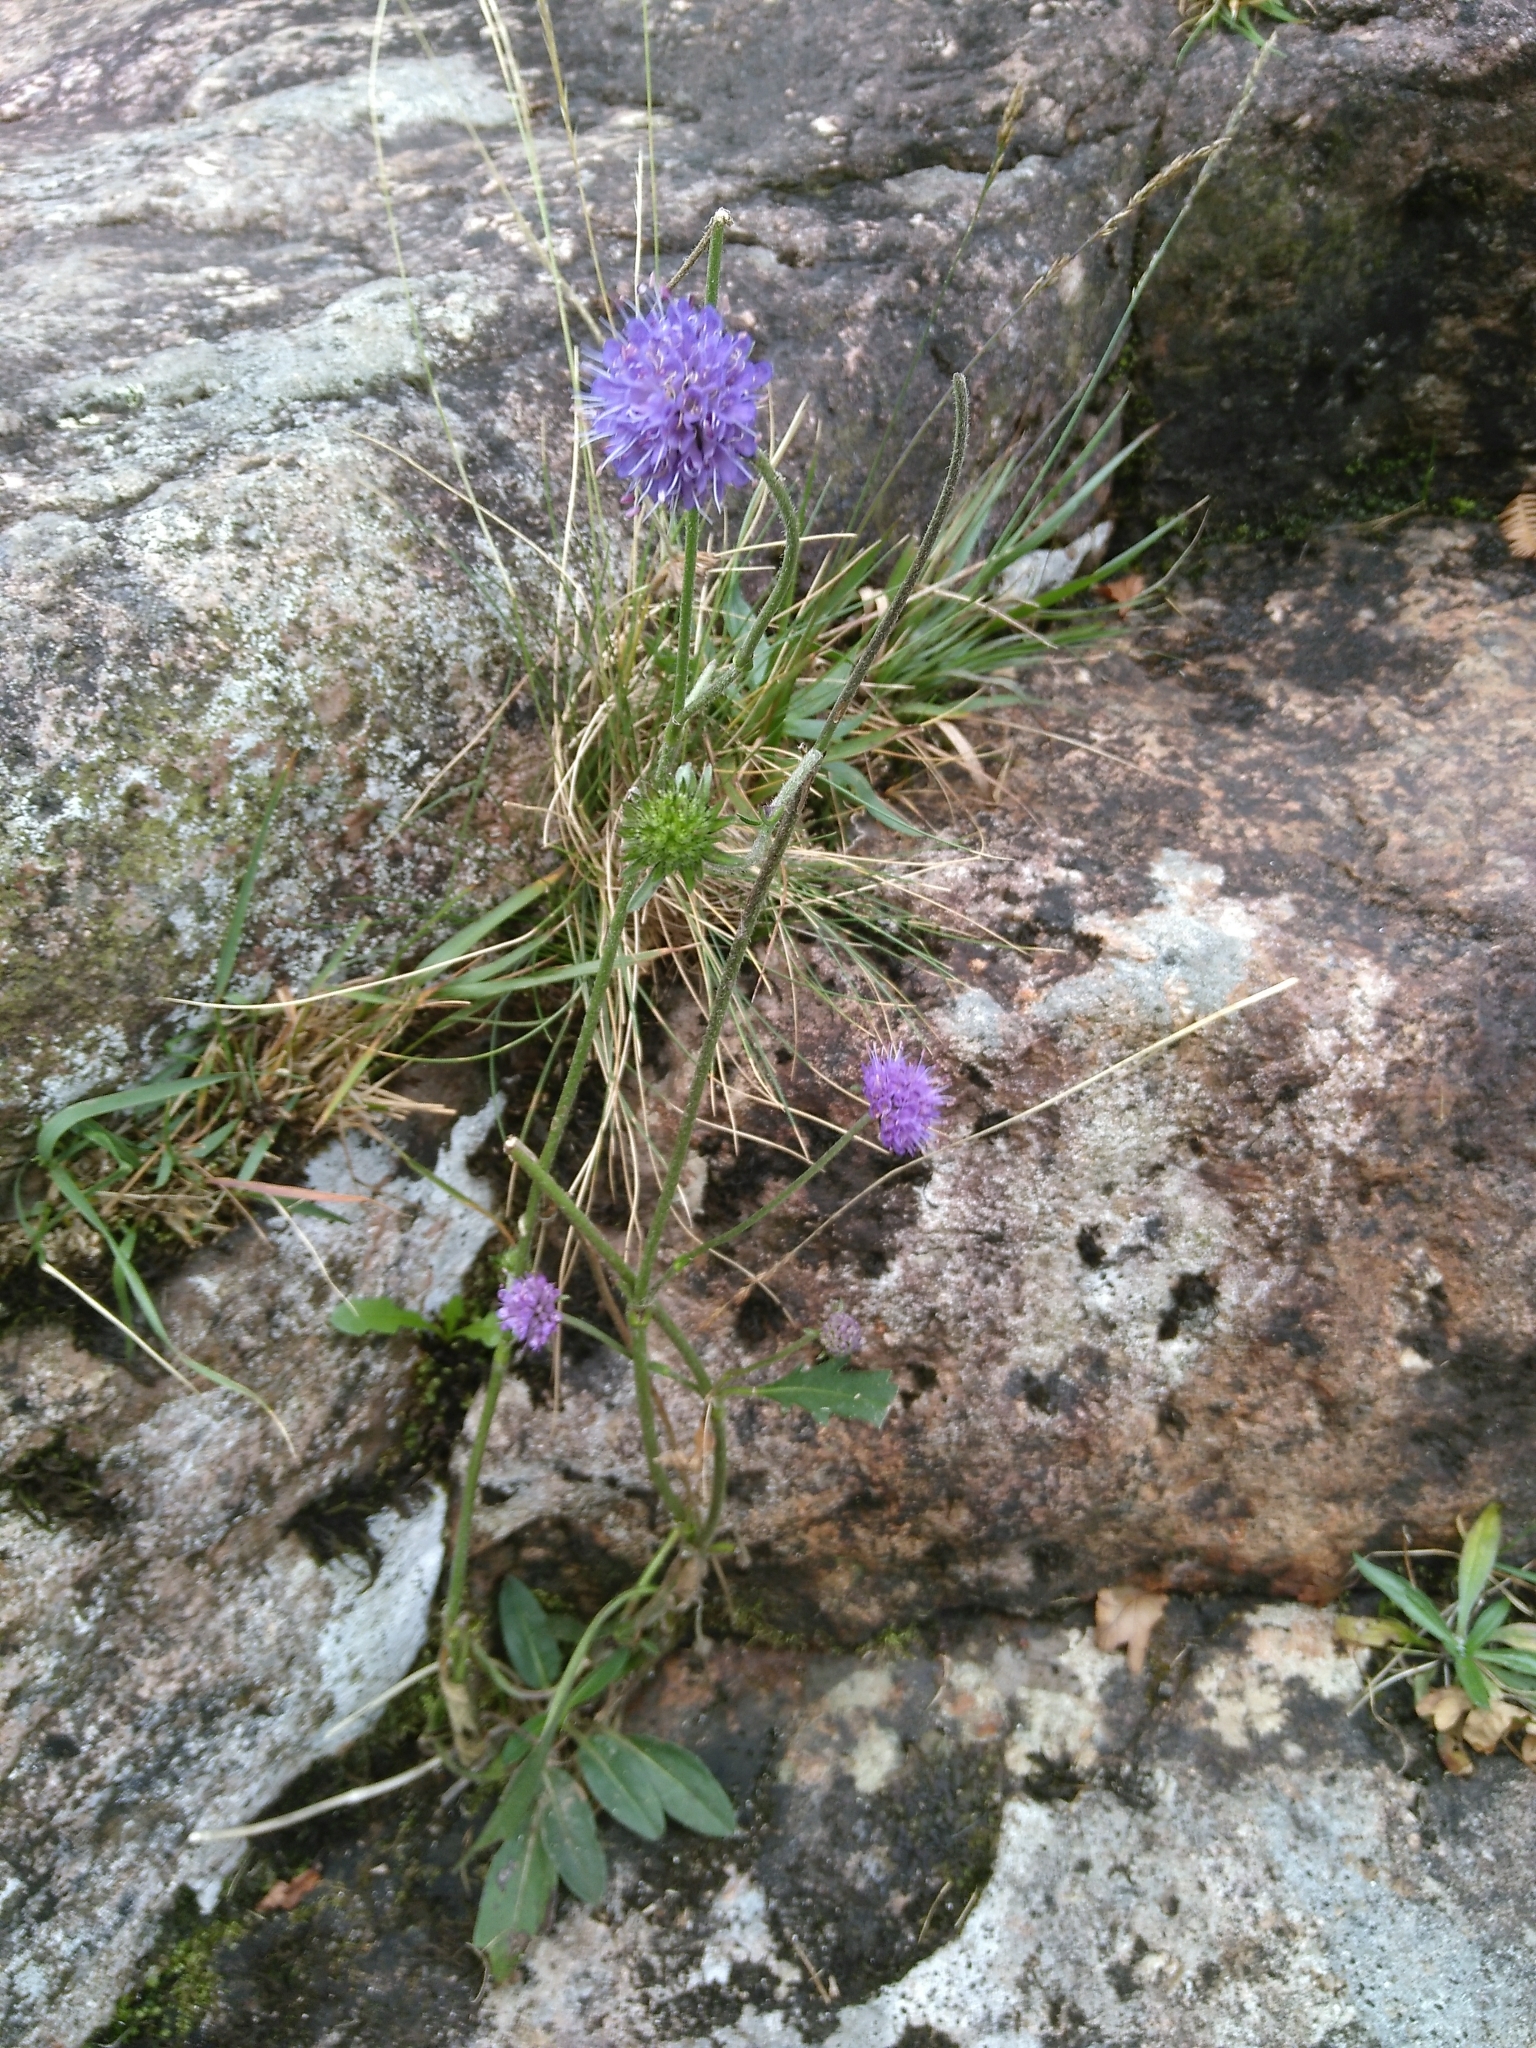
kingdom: Plantae
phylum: Tracheophyta
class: Magnoliopsida
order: Dipsacales
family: Caprifoliaceae
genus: Succisa
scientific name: Succisa pratensis
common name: Devil's-bit
